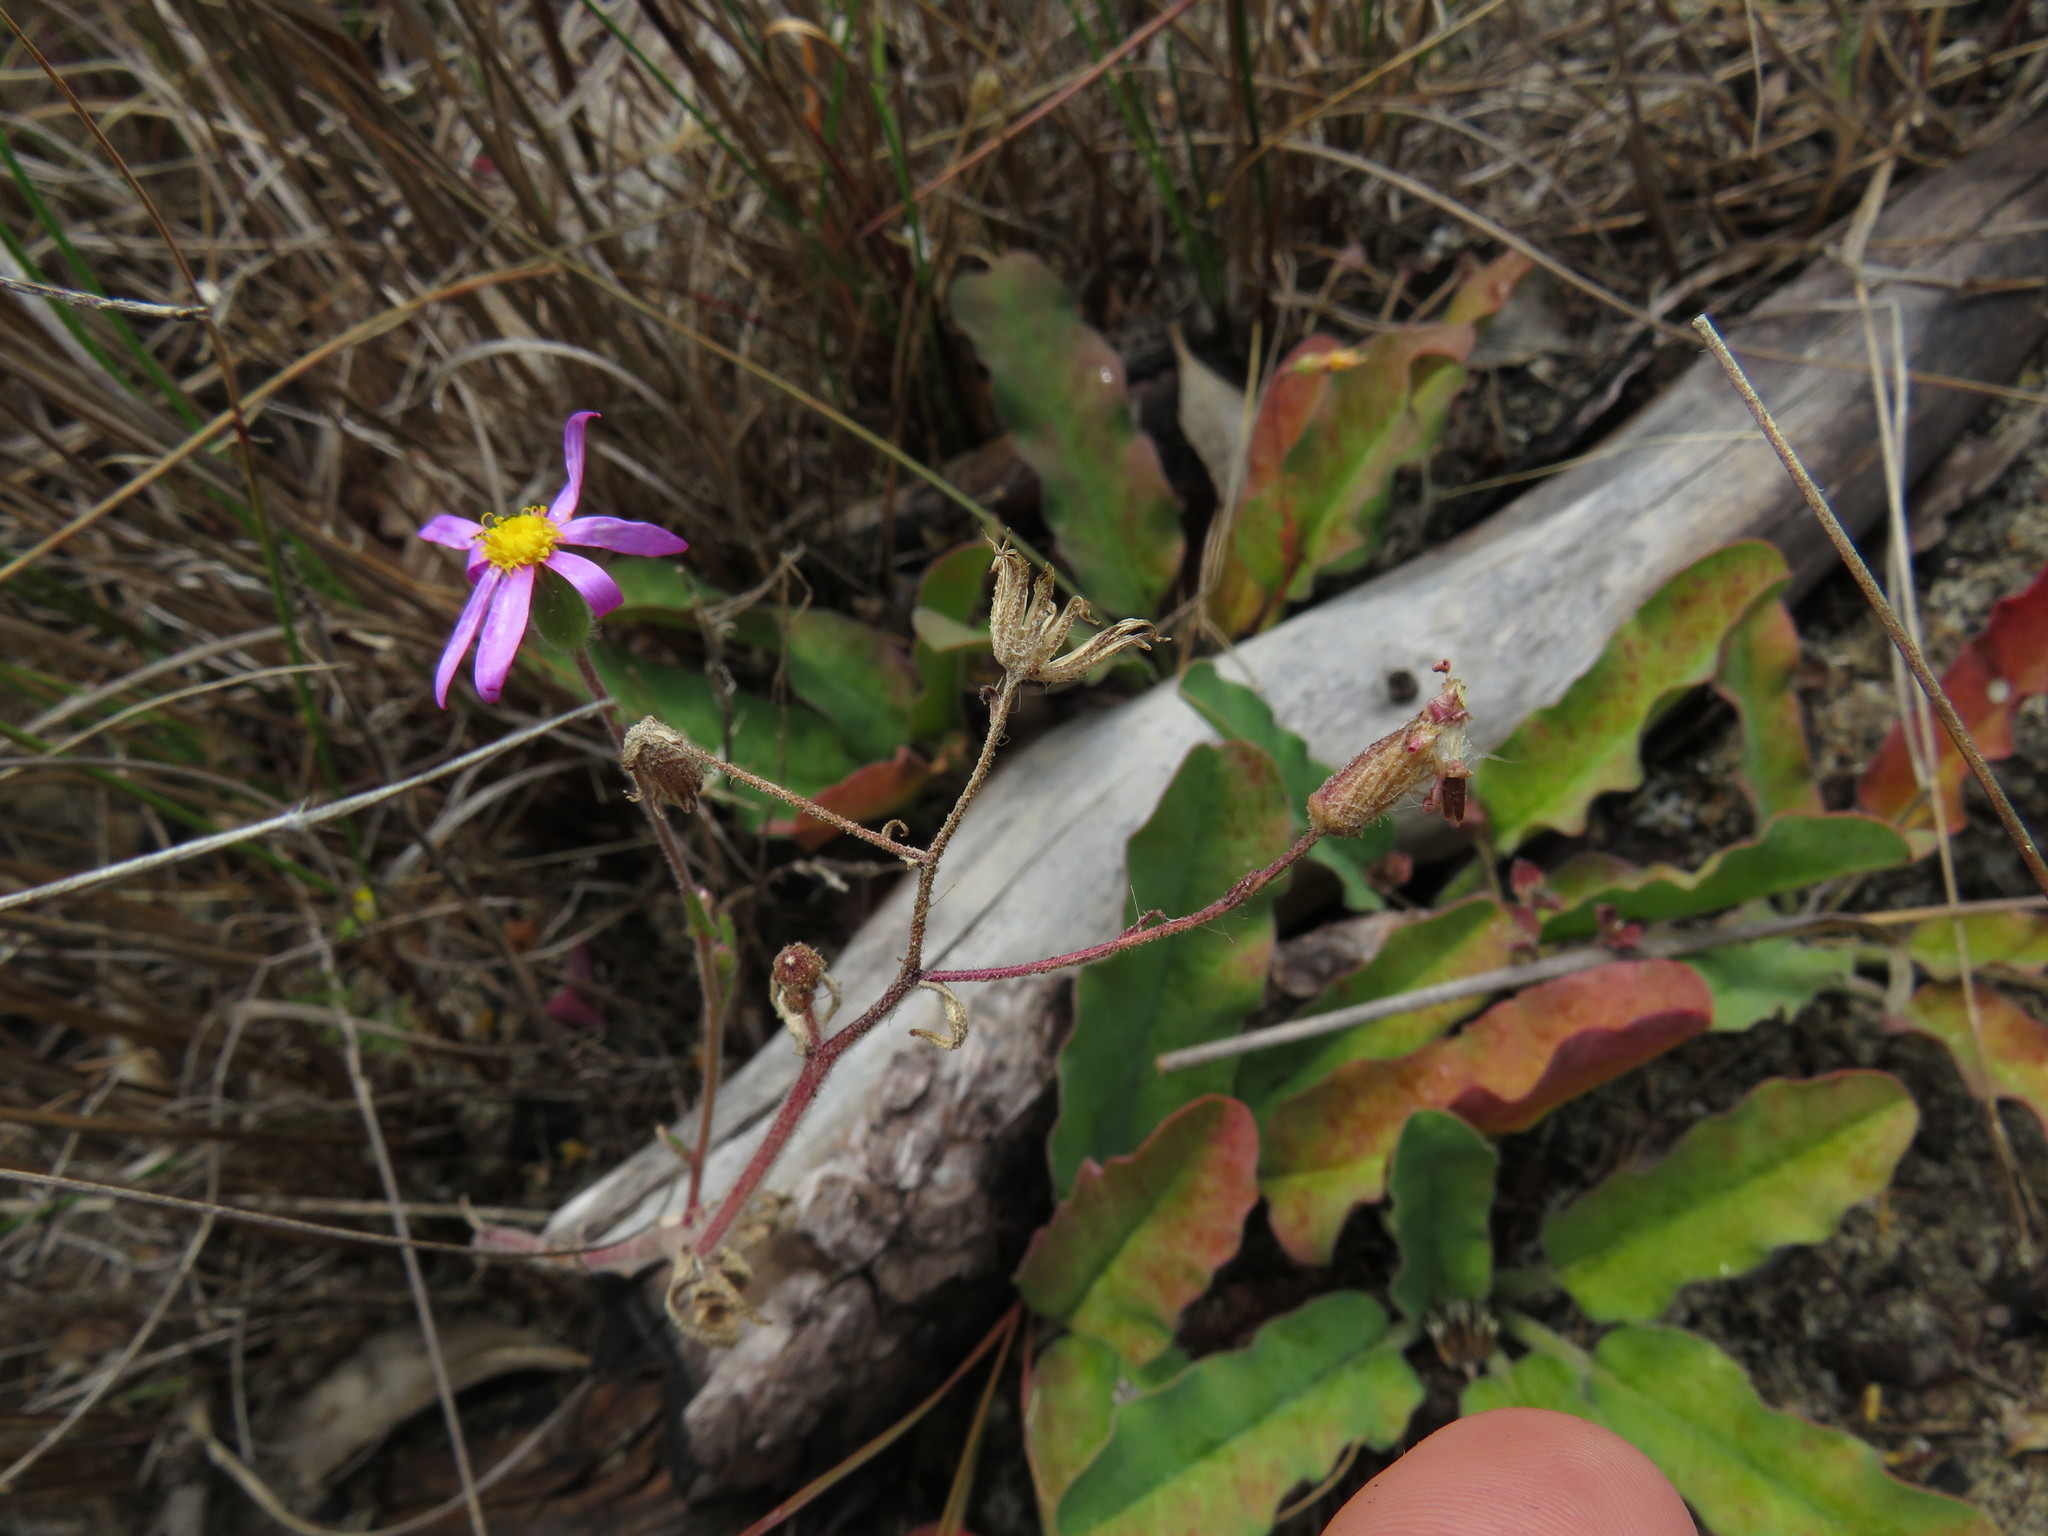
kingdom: Plantae
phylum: Tracheophyta
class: Magnoliopsida
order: Asterales
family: Asteraceae
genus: Senecio
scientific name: Senecio arenarius
